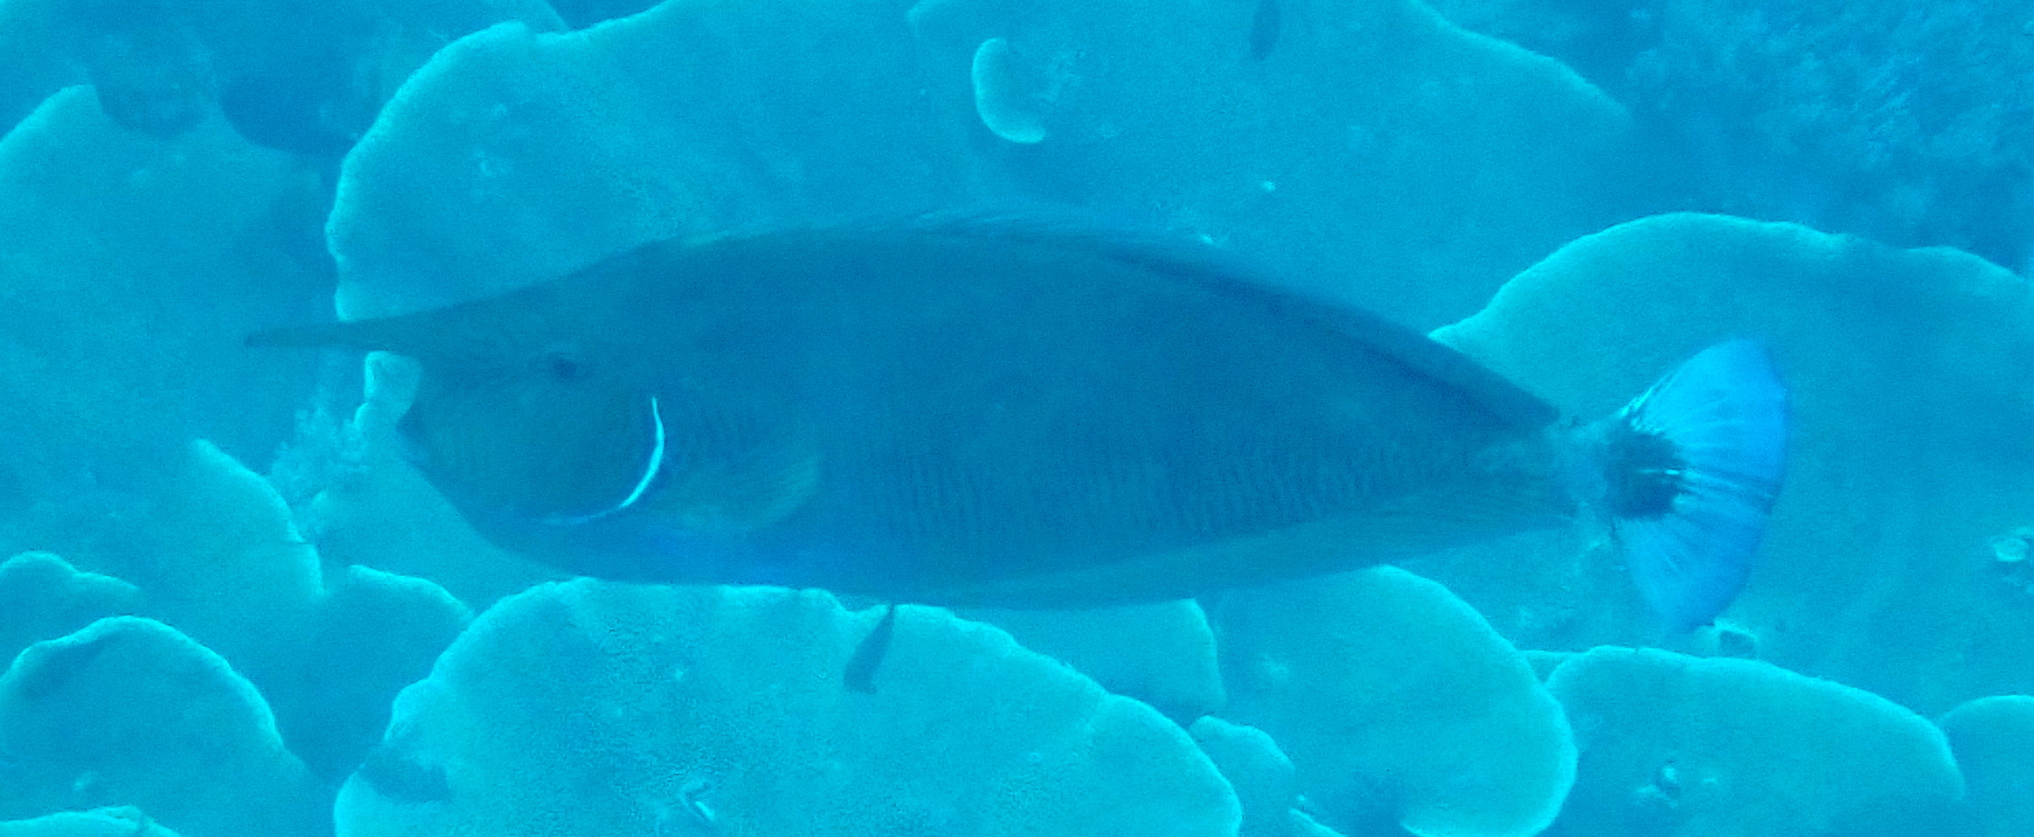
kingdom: Animalia
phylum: Chordata
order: Perciformes
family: Acanthuridae
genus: Naso
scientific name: Naso brevirostris
